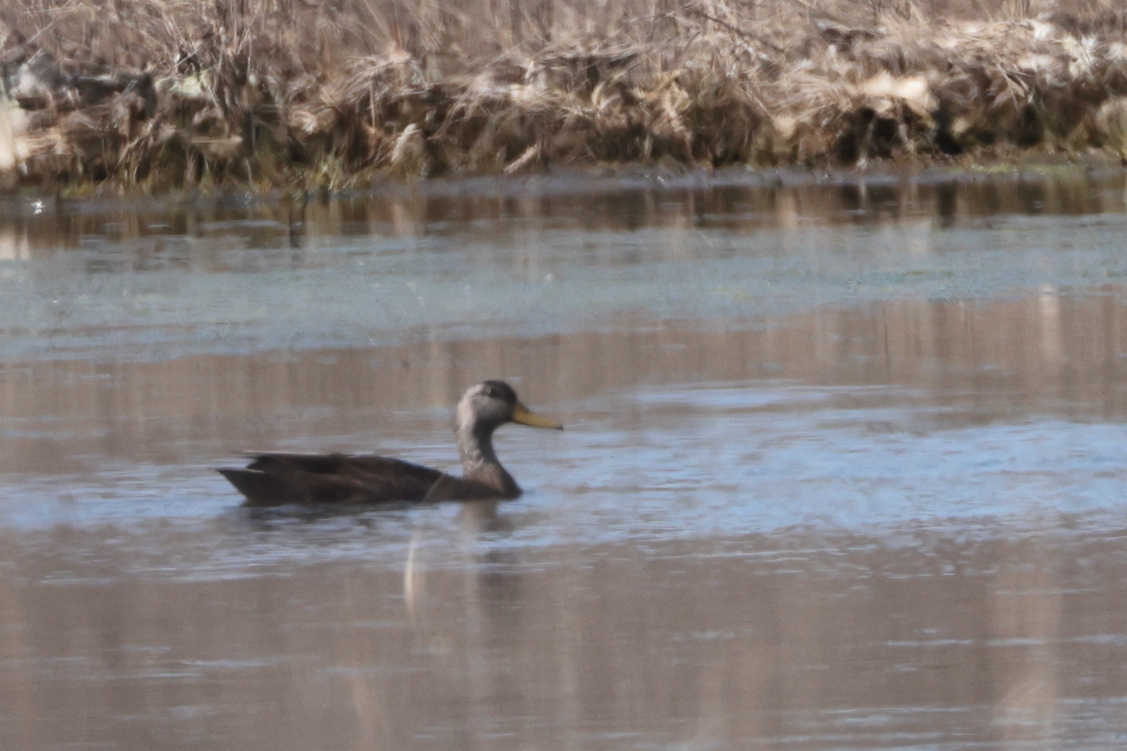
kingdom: Animalia
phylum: Chordata
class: Aves
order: Anseriformes
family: Anatidae
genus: Anas
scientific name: Anas rubripes
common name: American black duck
